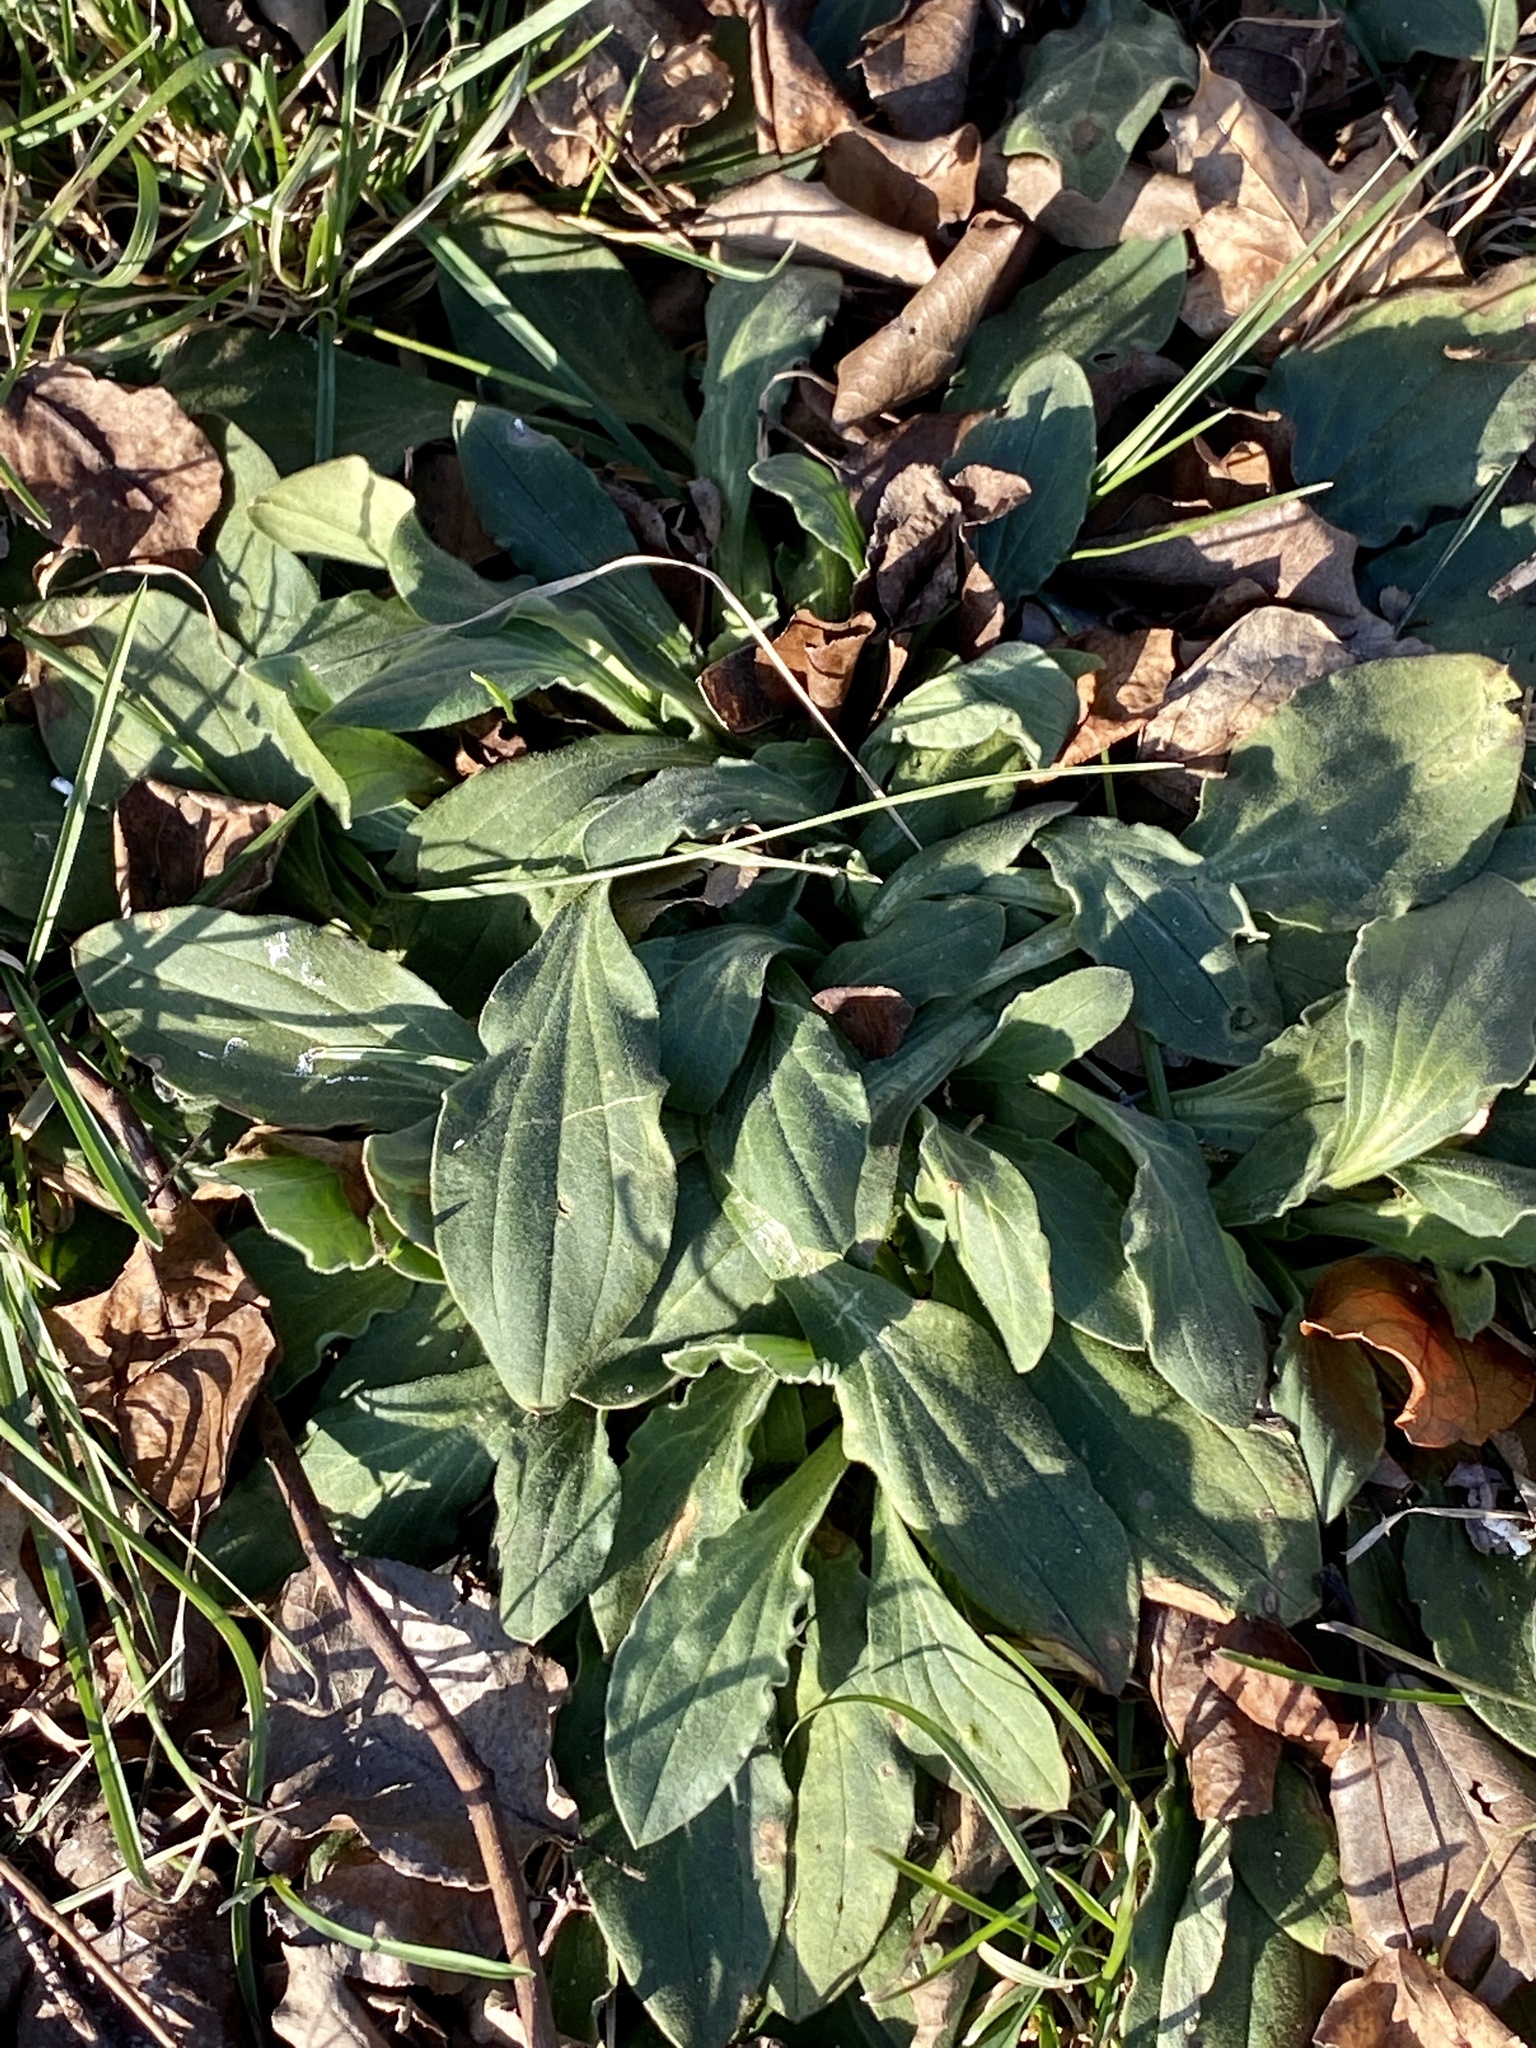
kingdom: Plantae
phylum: Tracheophyta
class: Magnoliopsida
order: Caryophyllales
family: Caryophyllaceae
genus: Silene
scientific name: Silene latifolia
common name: White campion
